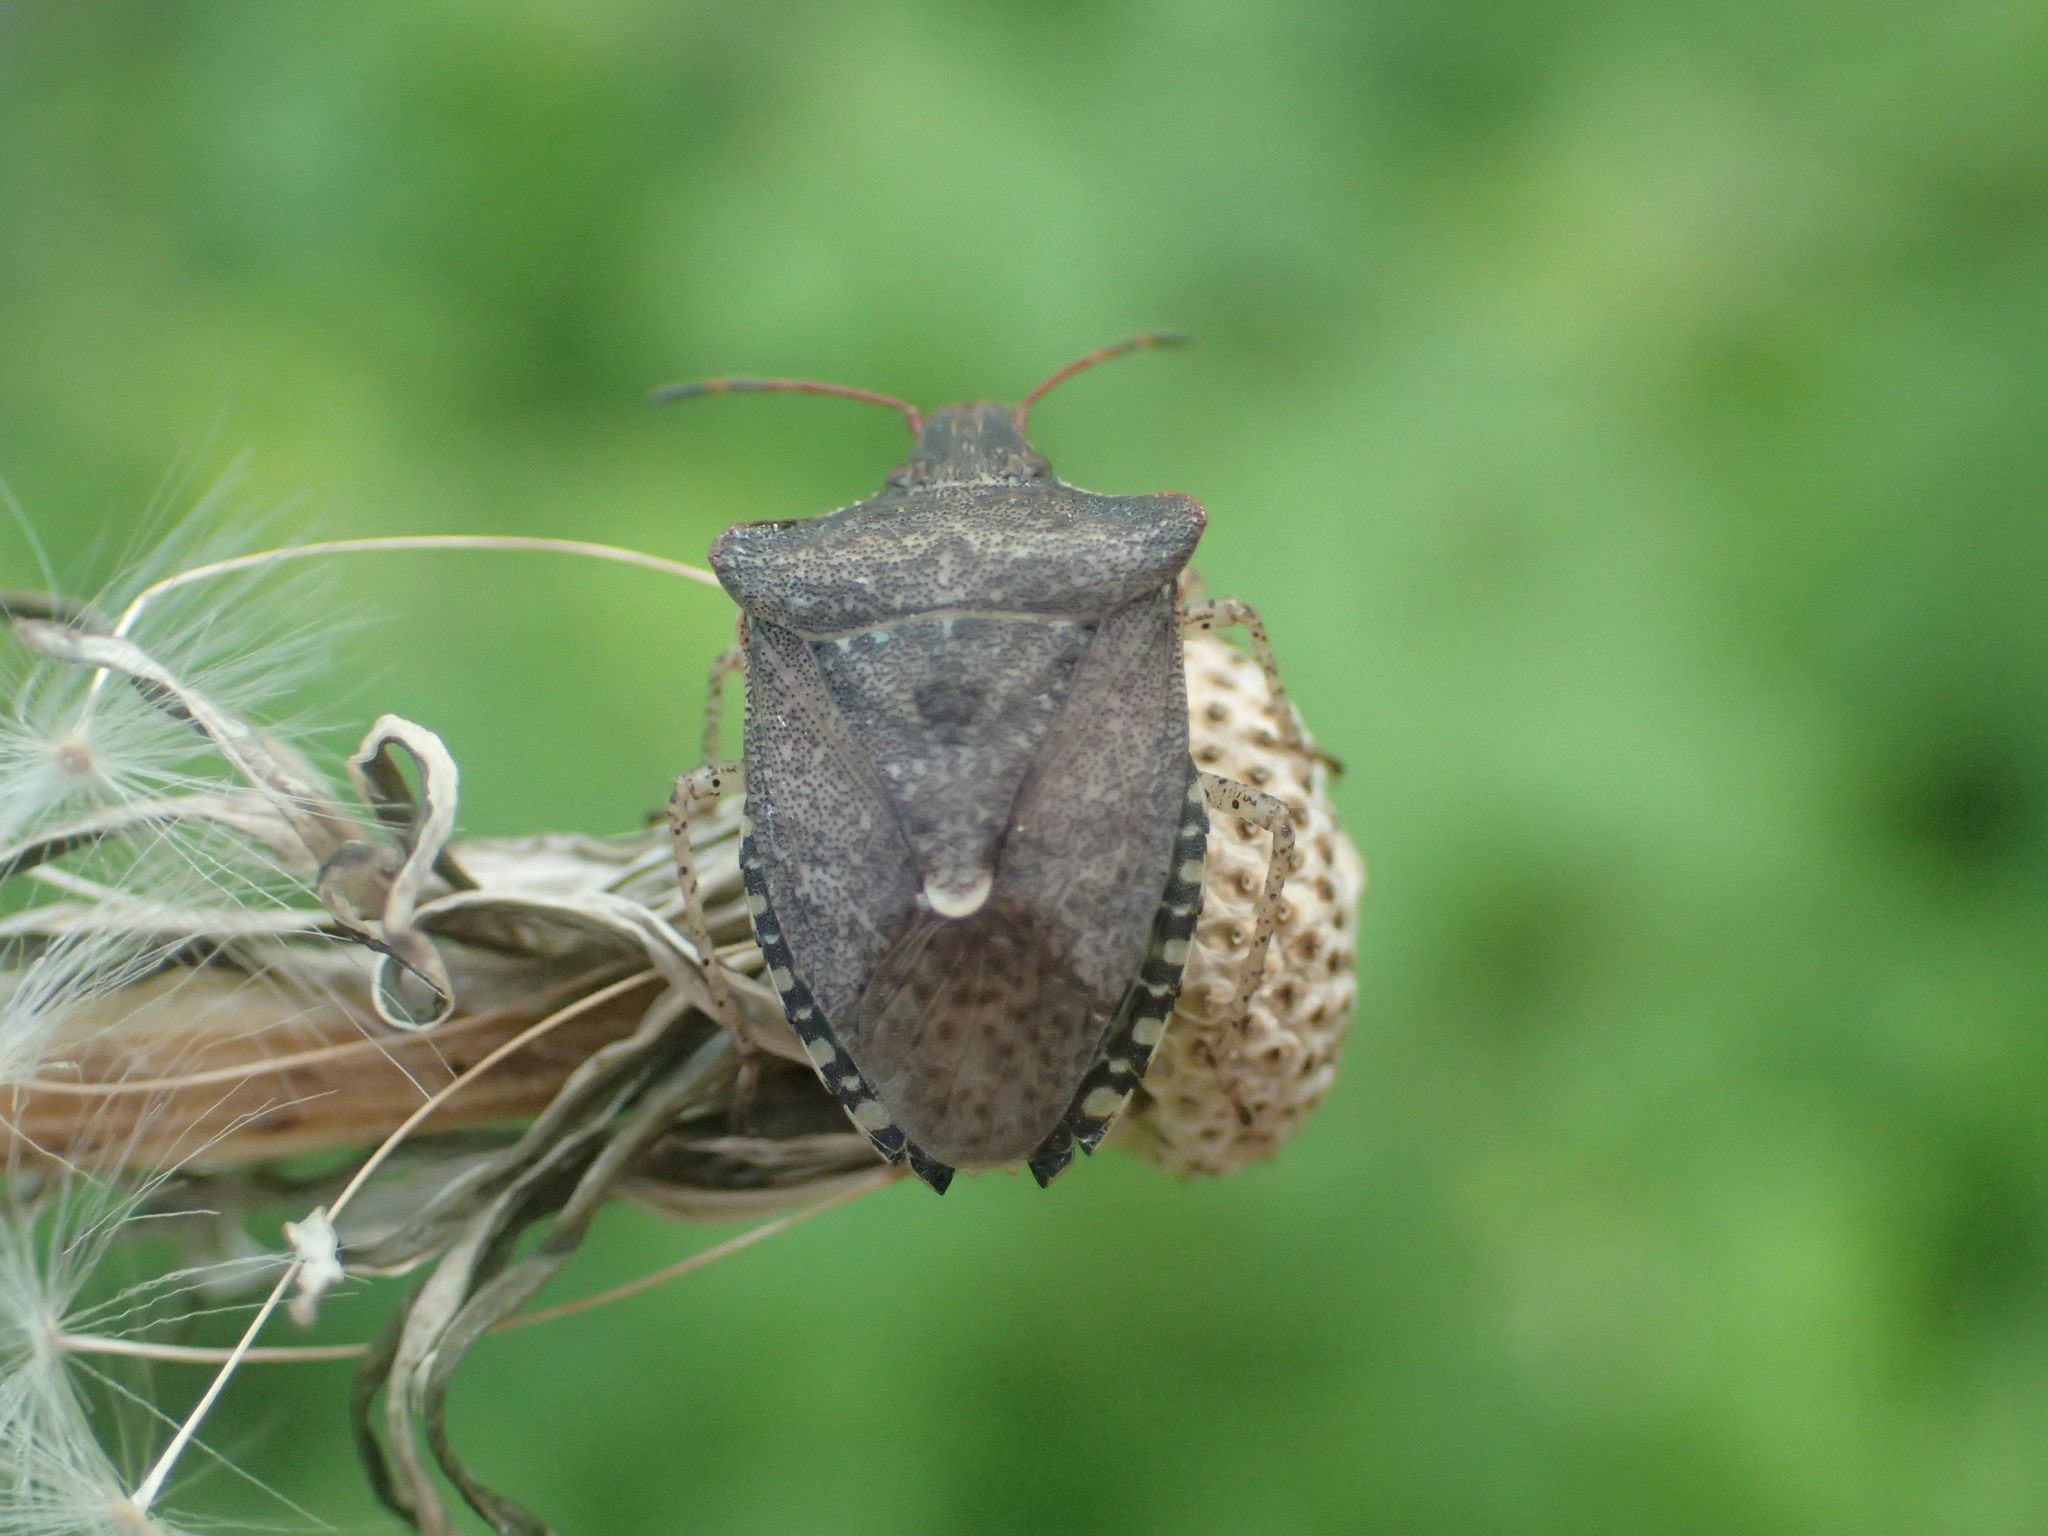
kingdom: Animalia
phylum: Arthropoda
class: Insecta
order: Hemiptera
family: Pentatomidae
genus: Euschistus
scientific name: Euschistus tristigmus
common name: Dusky stink bug
